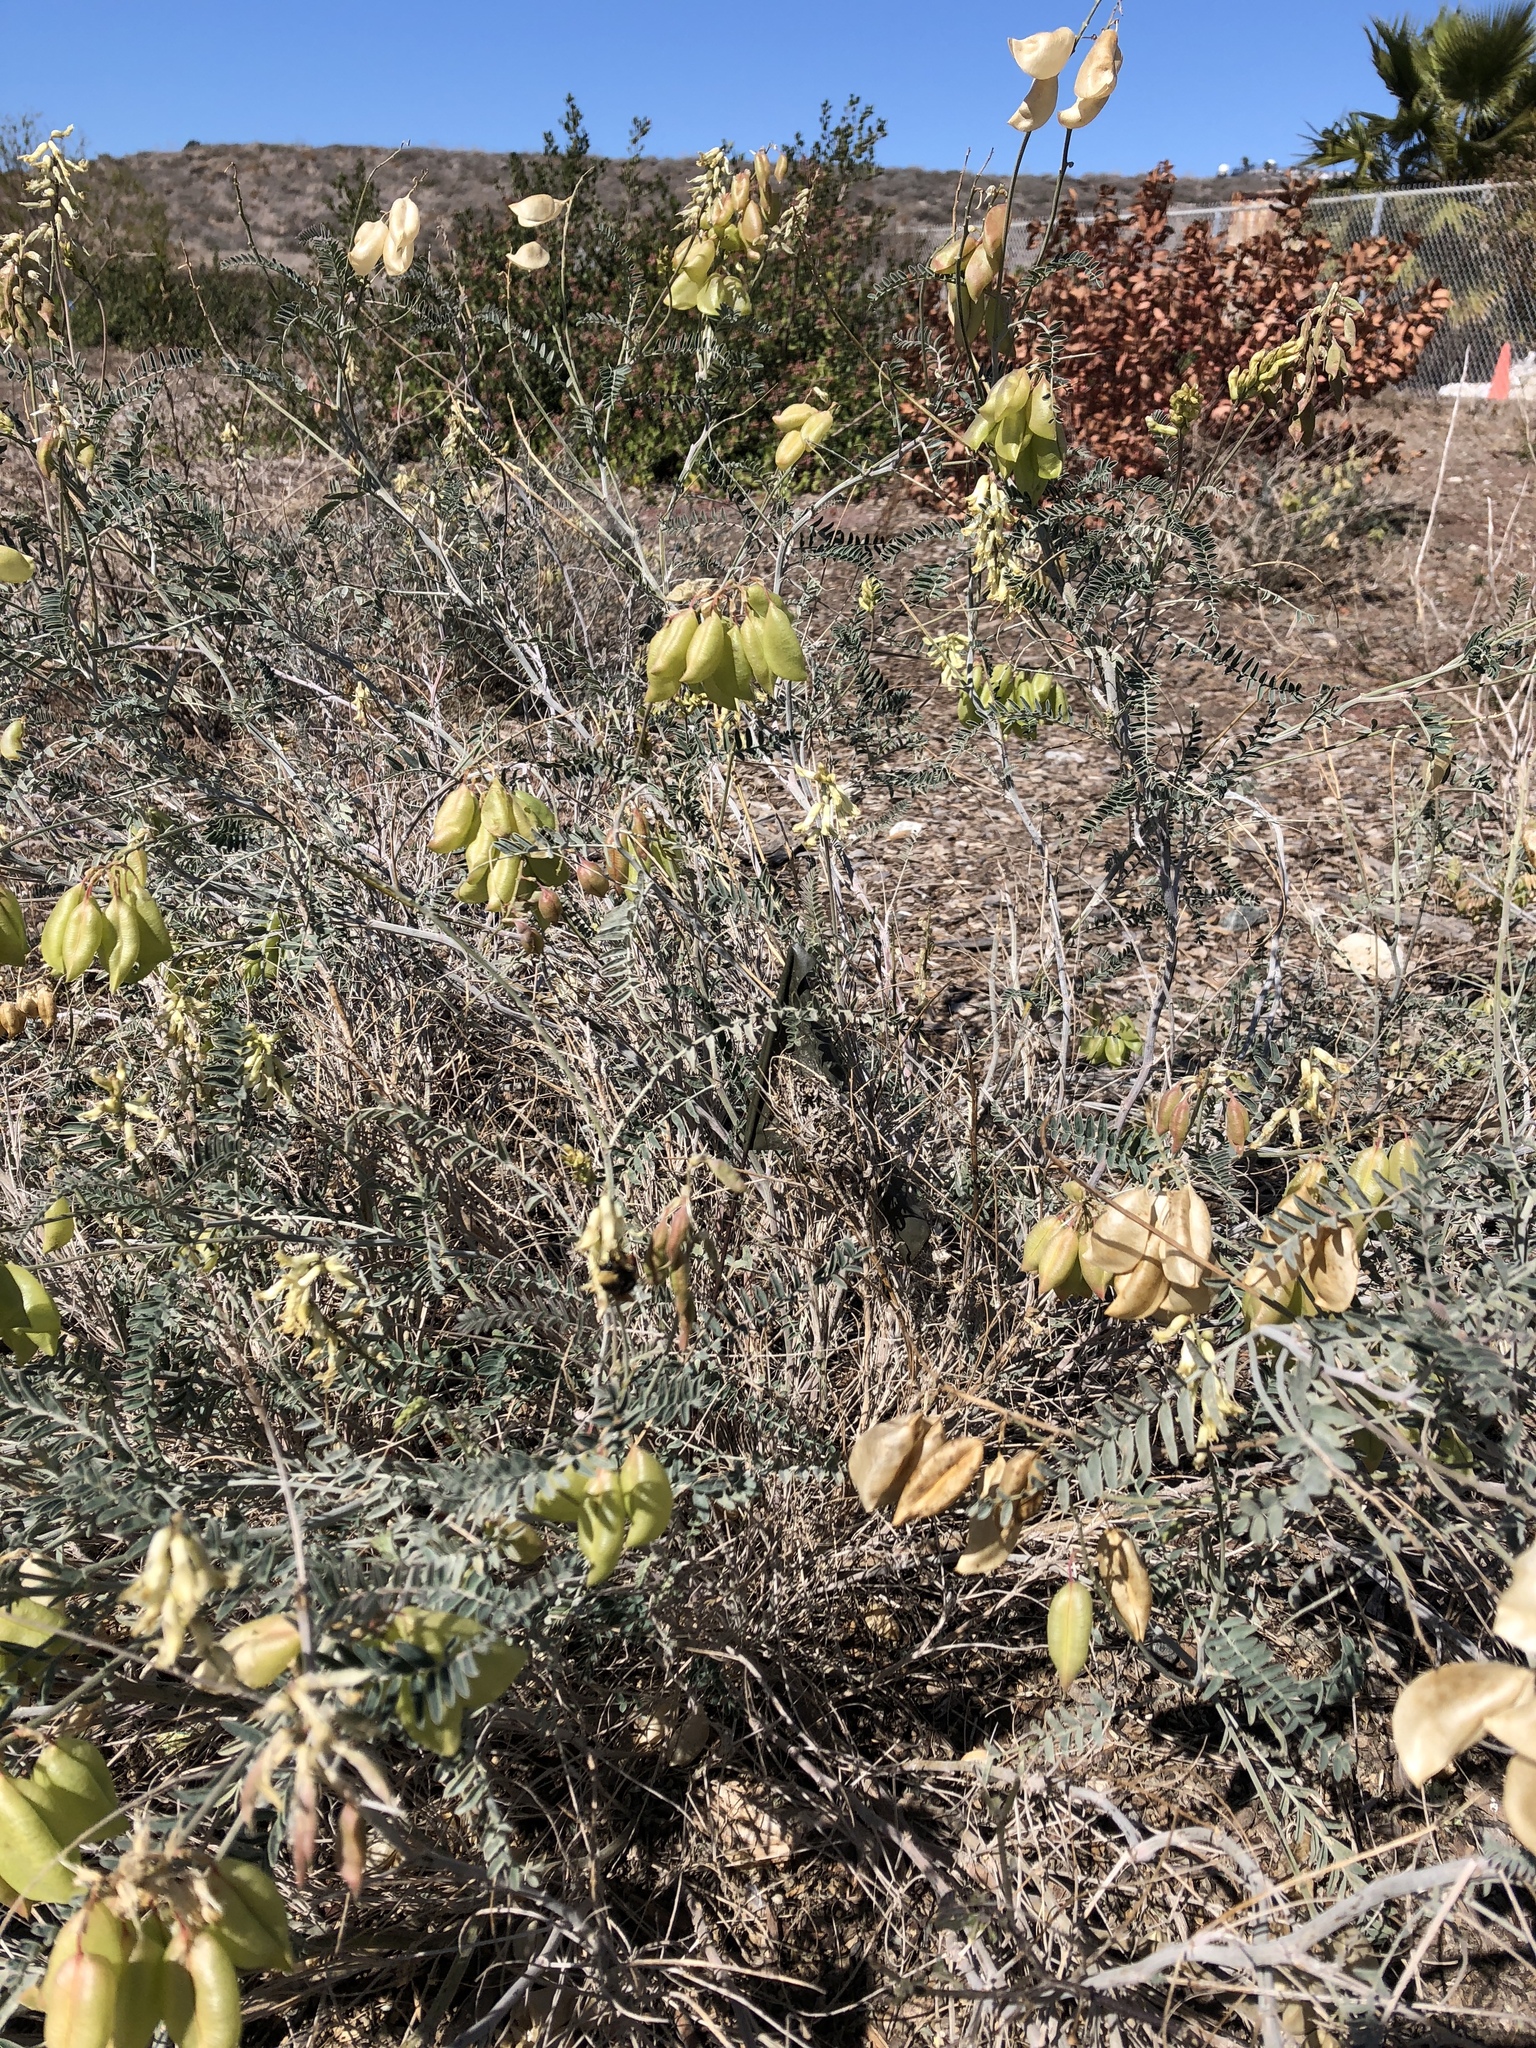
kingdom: Plantae
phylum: Tracheophyta
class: Magnoliopsida
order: Fabales
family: Fabaceae
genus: Astragalus
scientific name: Astragalus trichopodus
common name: Santa barbara milk-vetch
